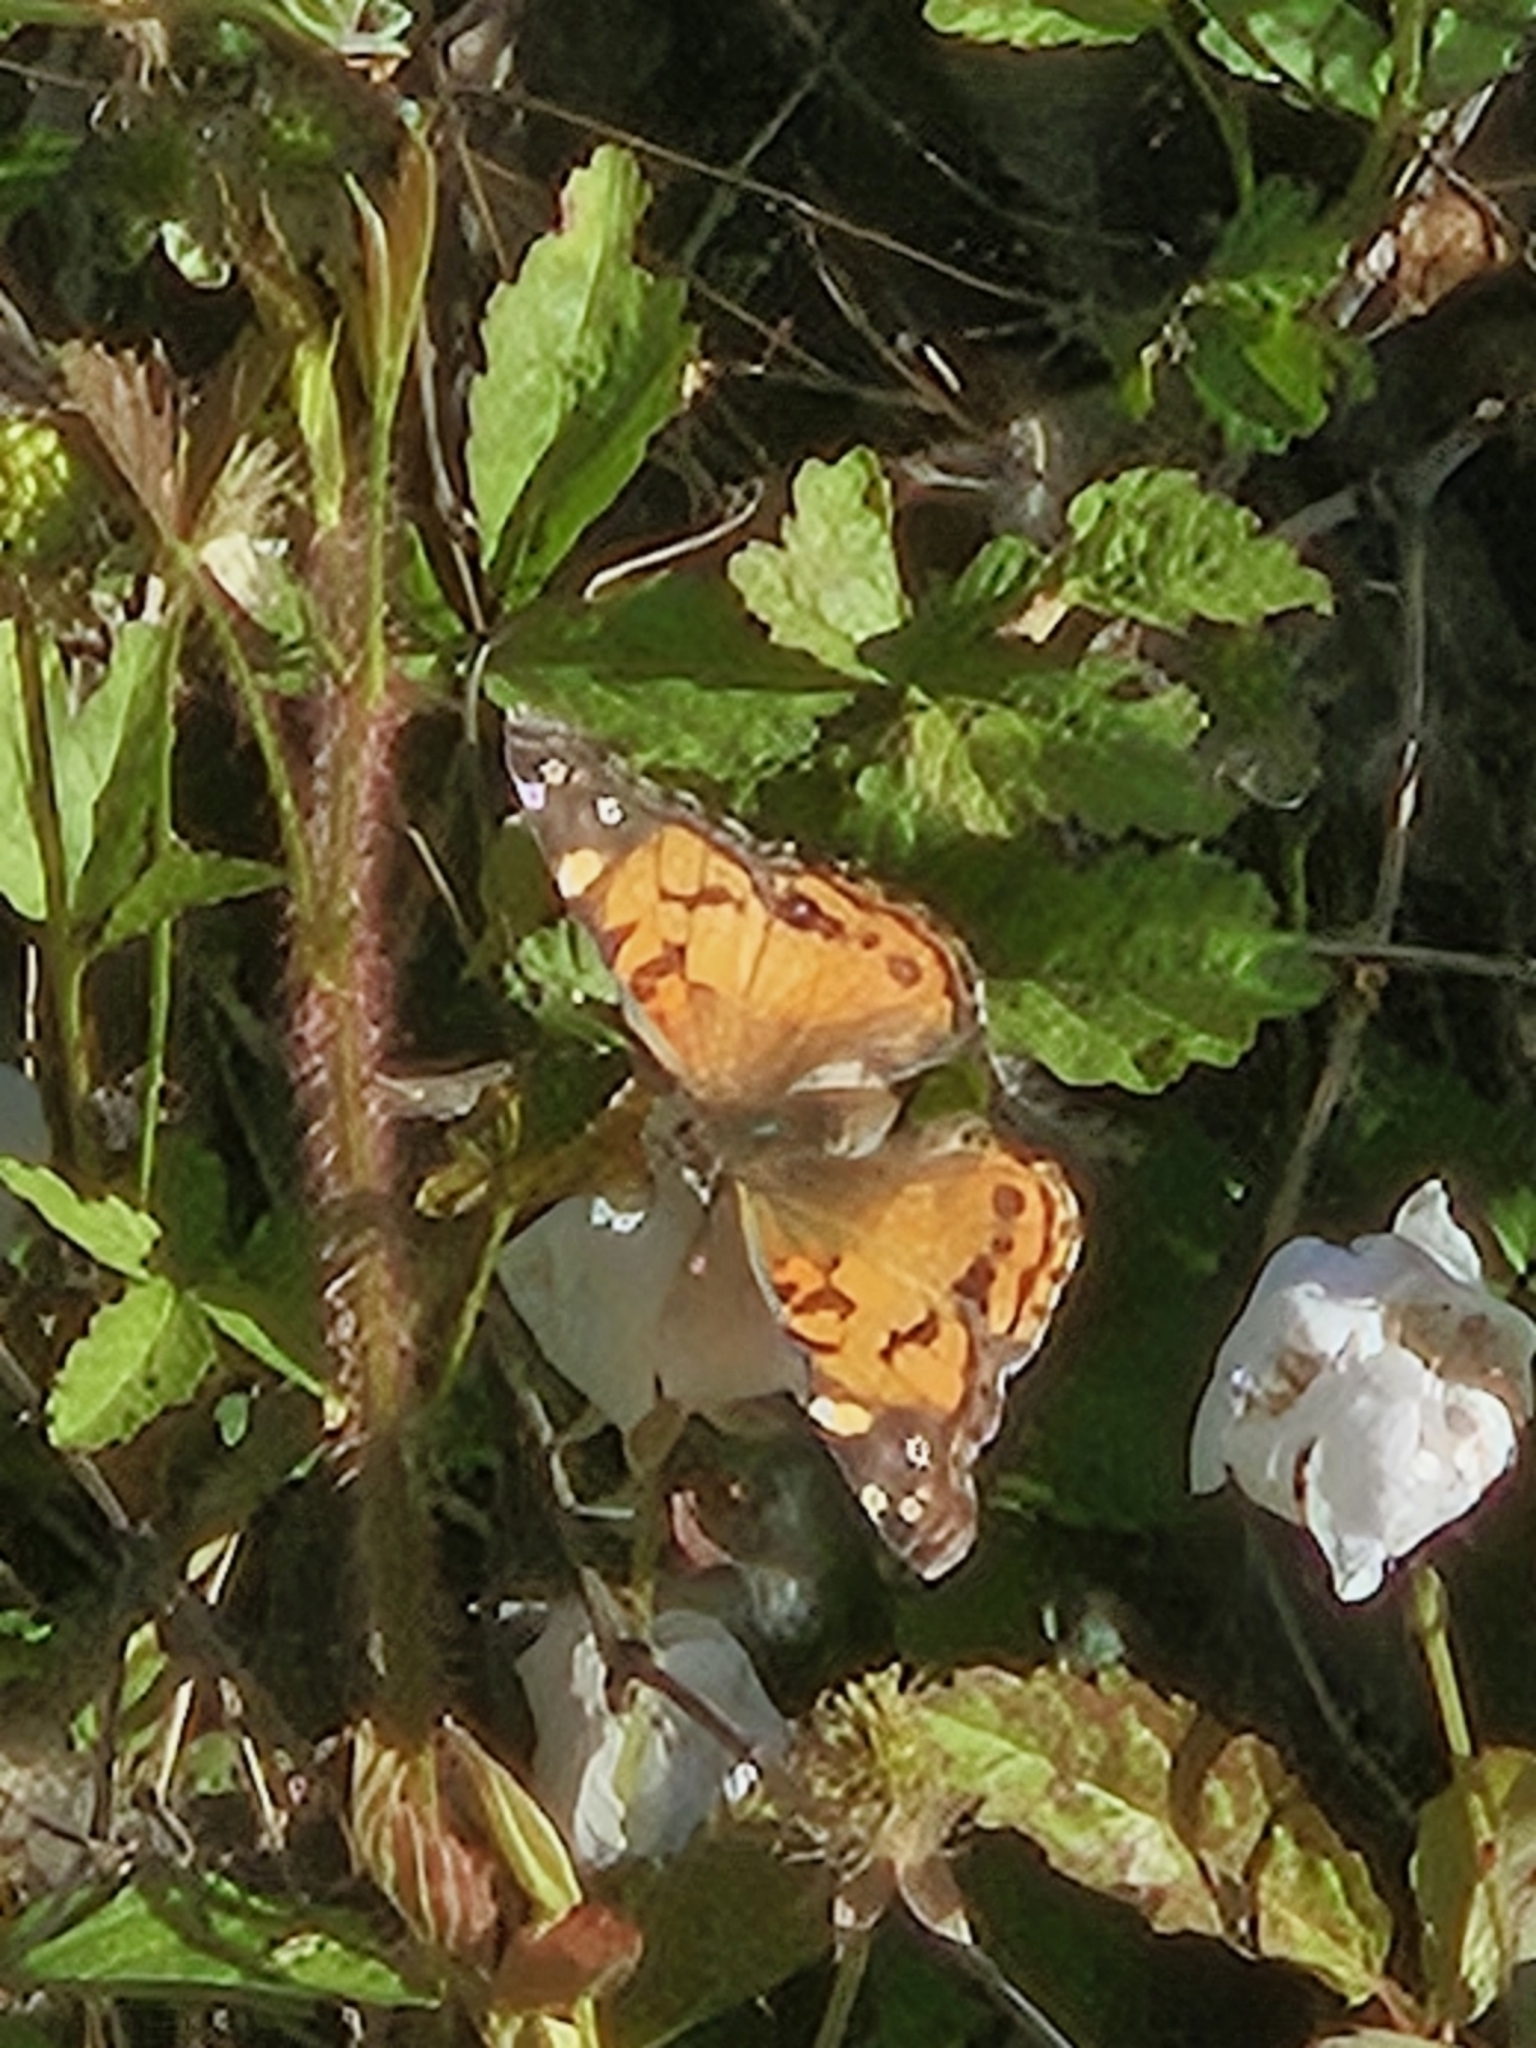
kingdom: Animalia
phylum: Arthropoda
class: Insecta
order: Lepidoptera
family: Nymphalidae
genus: Vanessa
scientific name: Vanessa virginiensis
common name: American lady
